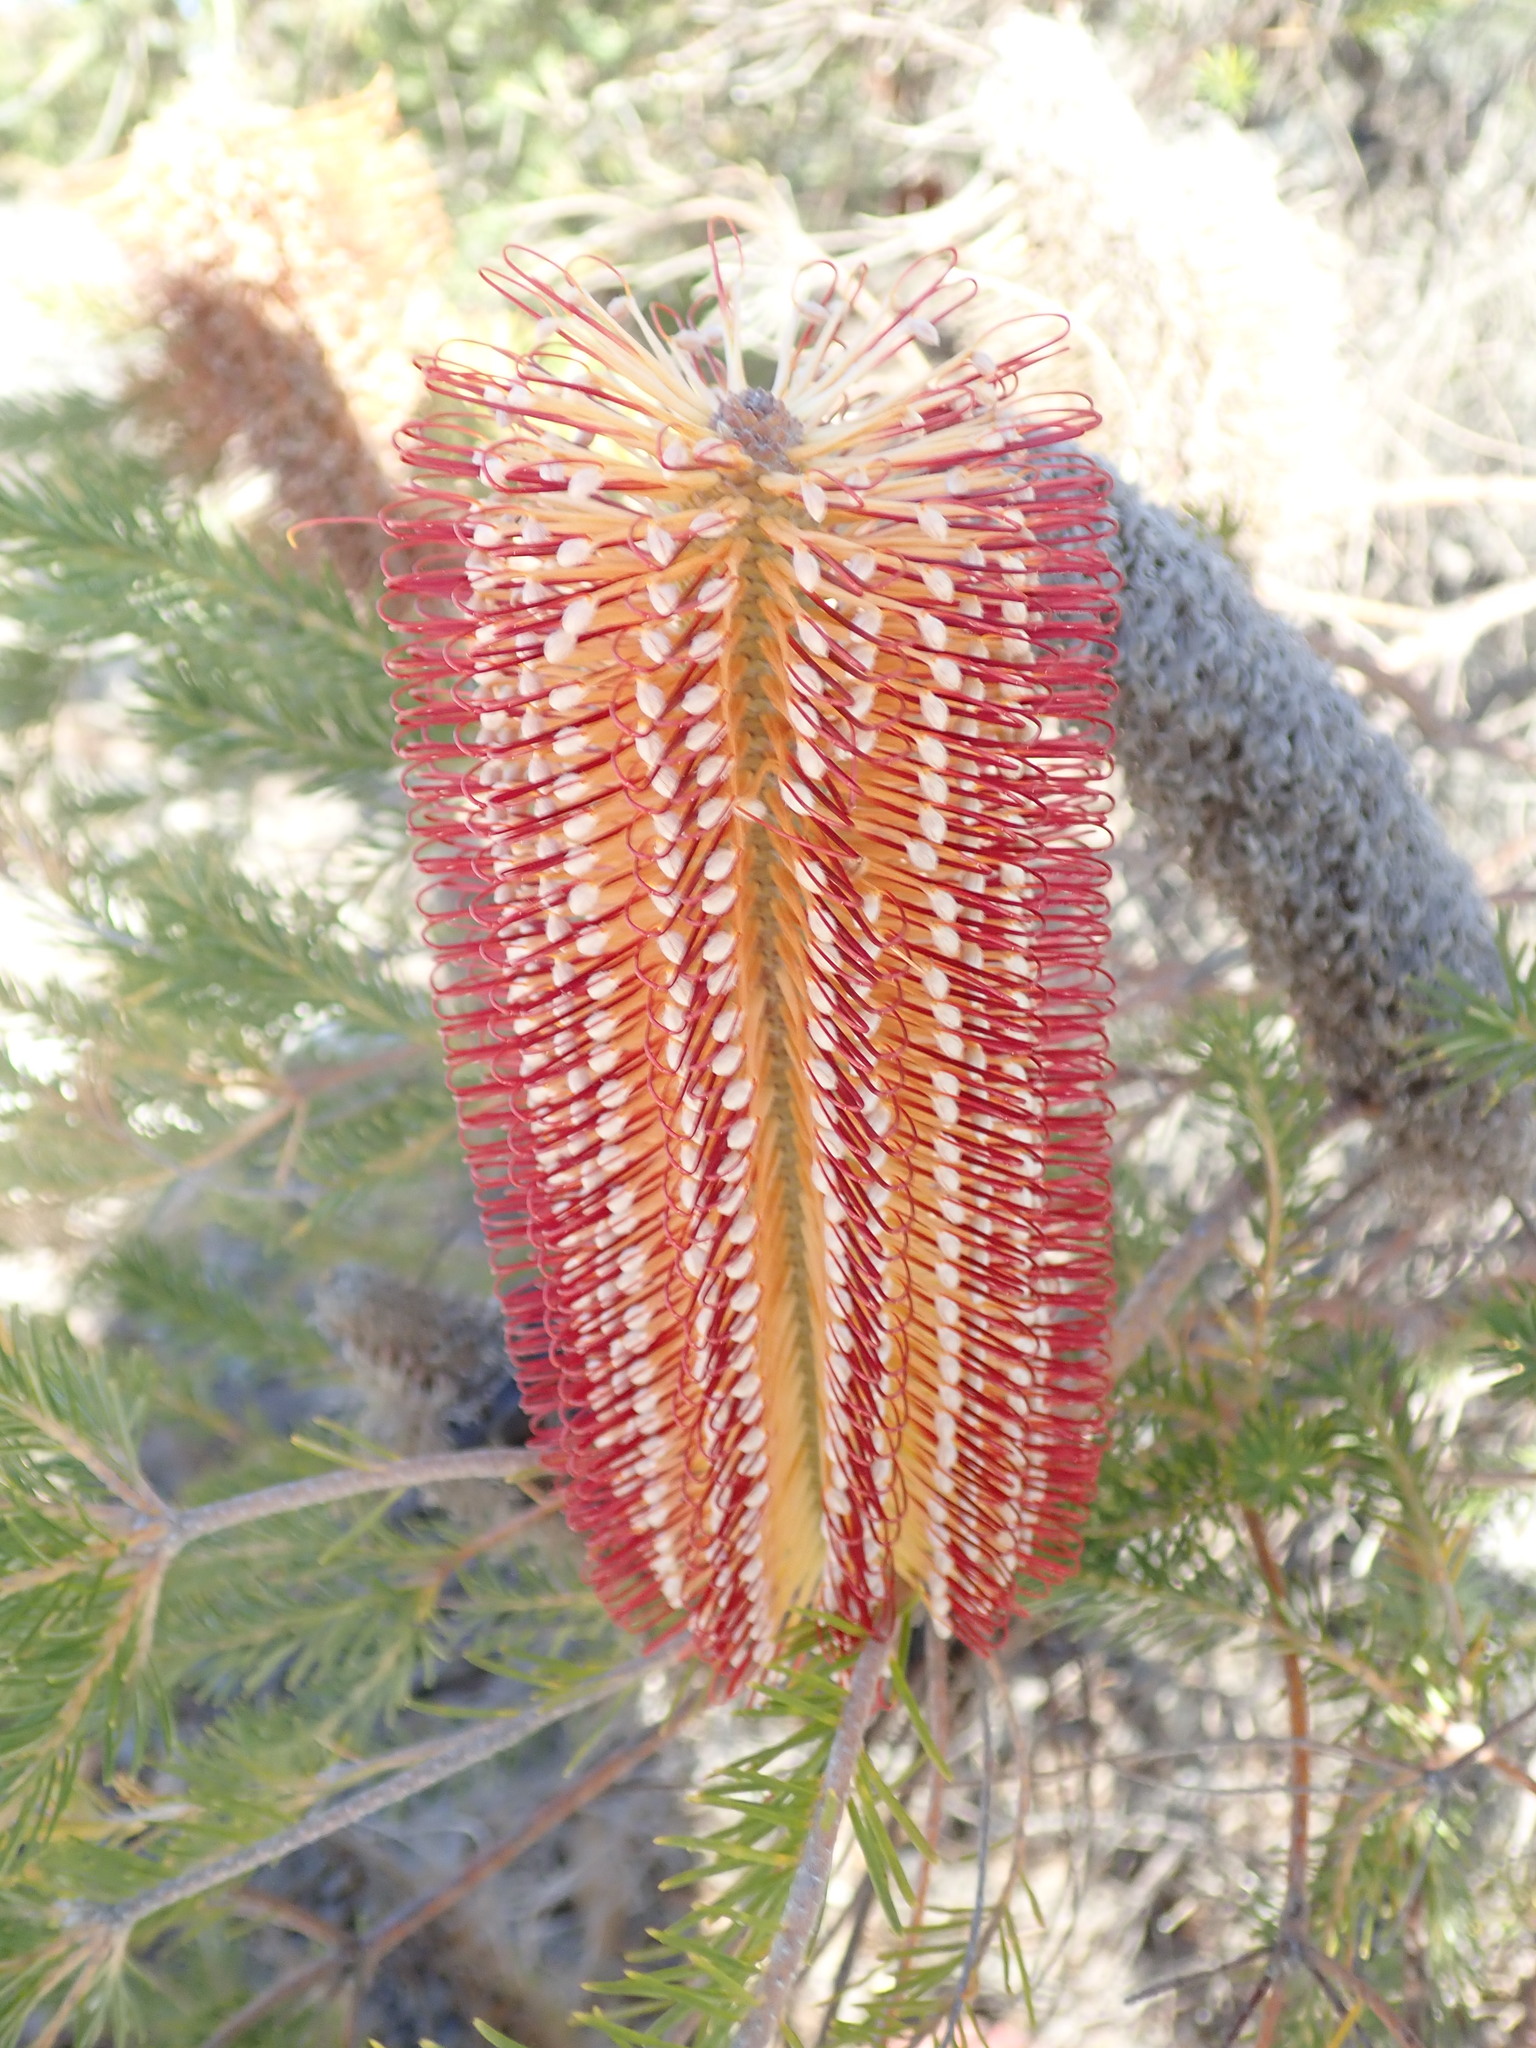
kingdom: Plantae
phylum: Tracheophyta
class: Magnoliopsida
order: Proteales
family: Proteaceae
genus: Banksia
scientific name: Banksia ericifolia
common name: Heath-leaf banksia
